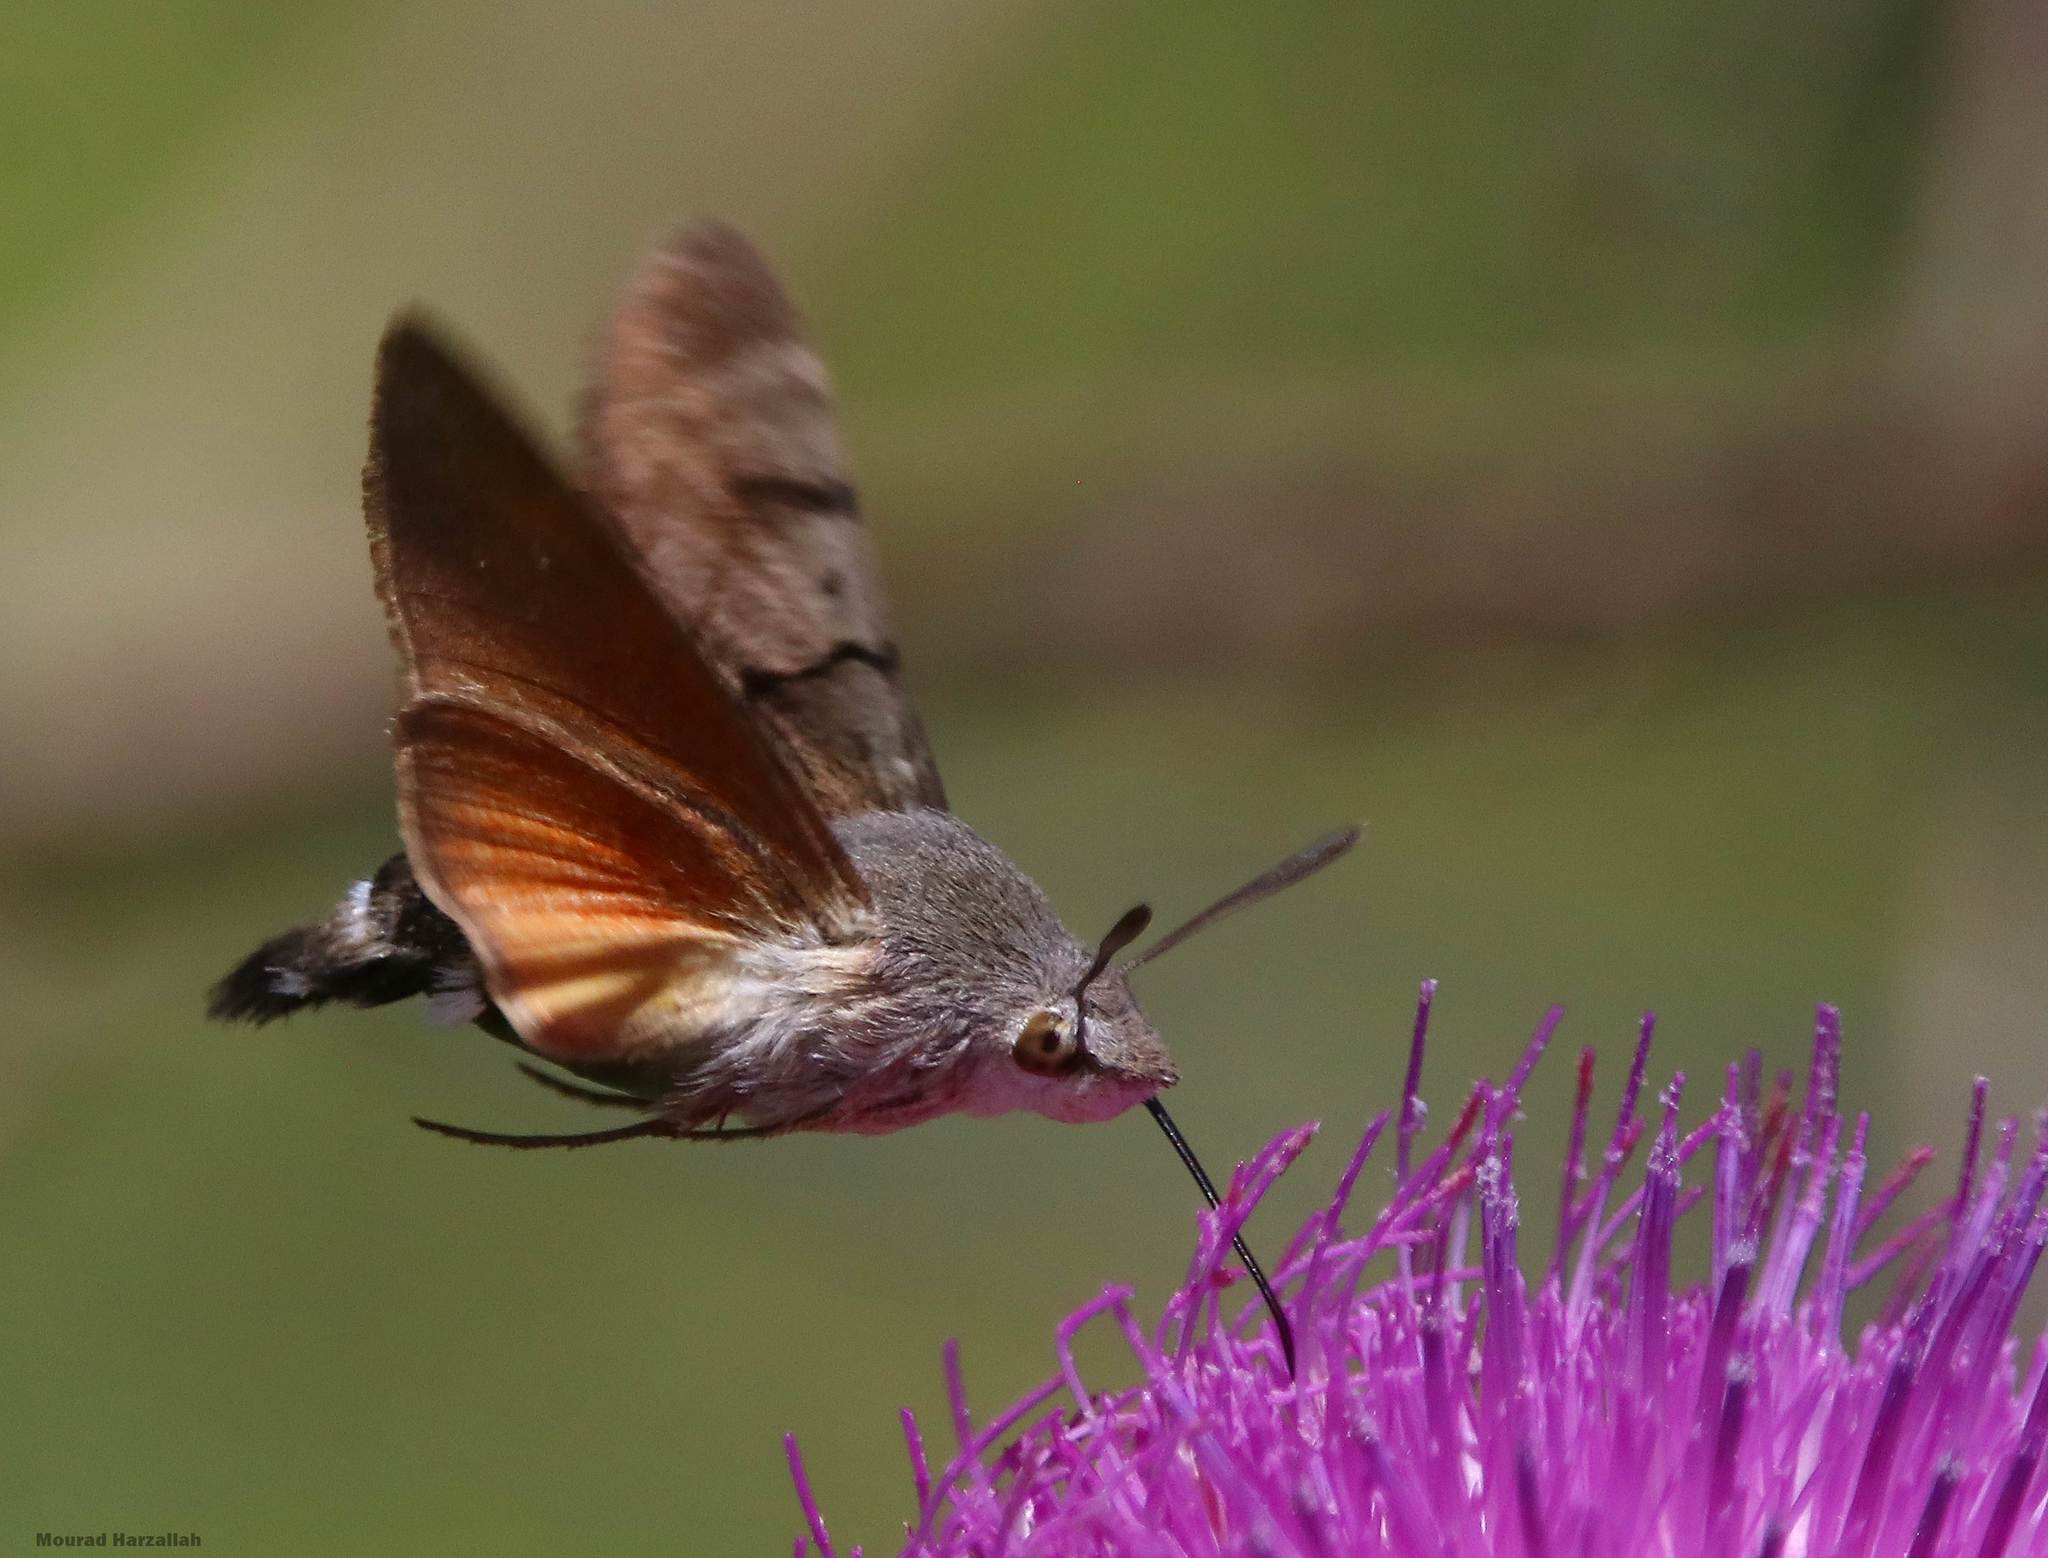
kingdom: Animalia
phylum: Arthropoda
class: Insecta
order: Lepidoptera
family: Sphingidae
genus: Macroglossum
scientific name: Macroglossum stellatarum
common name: Humming-bird hawk-moth
